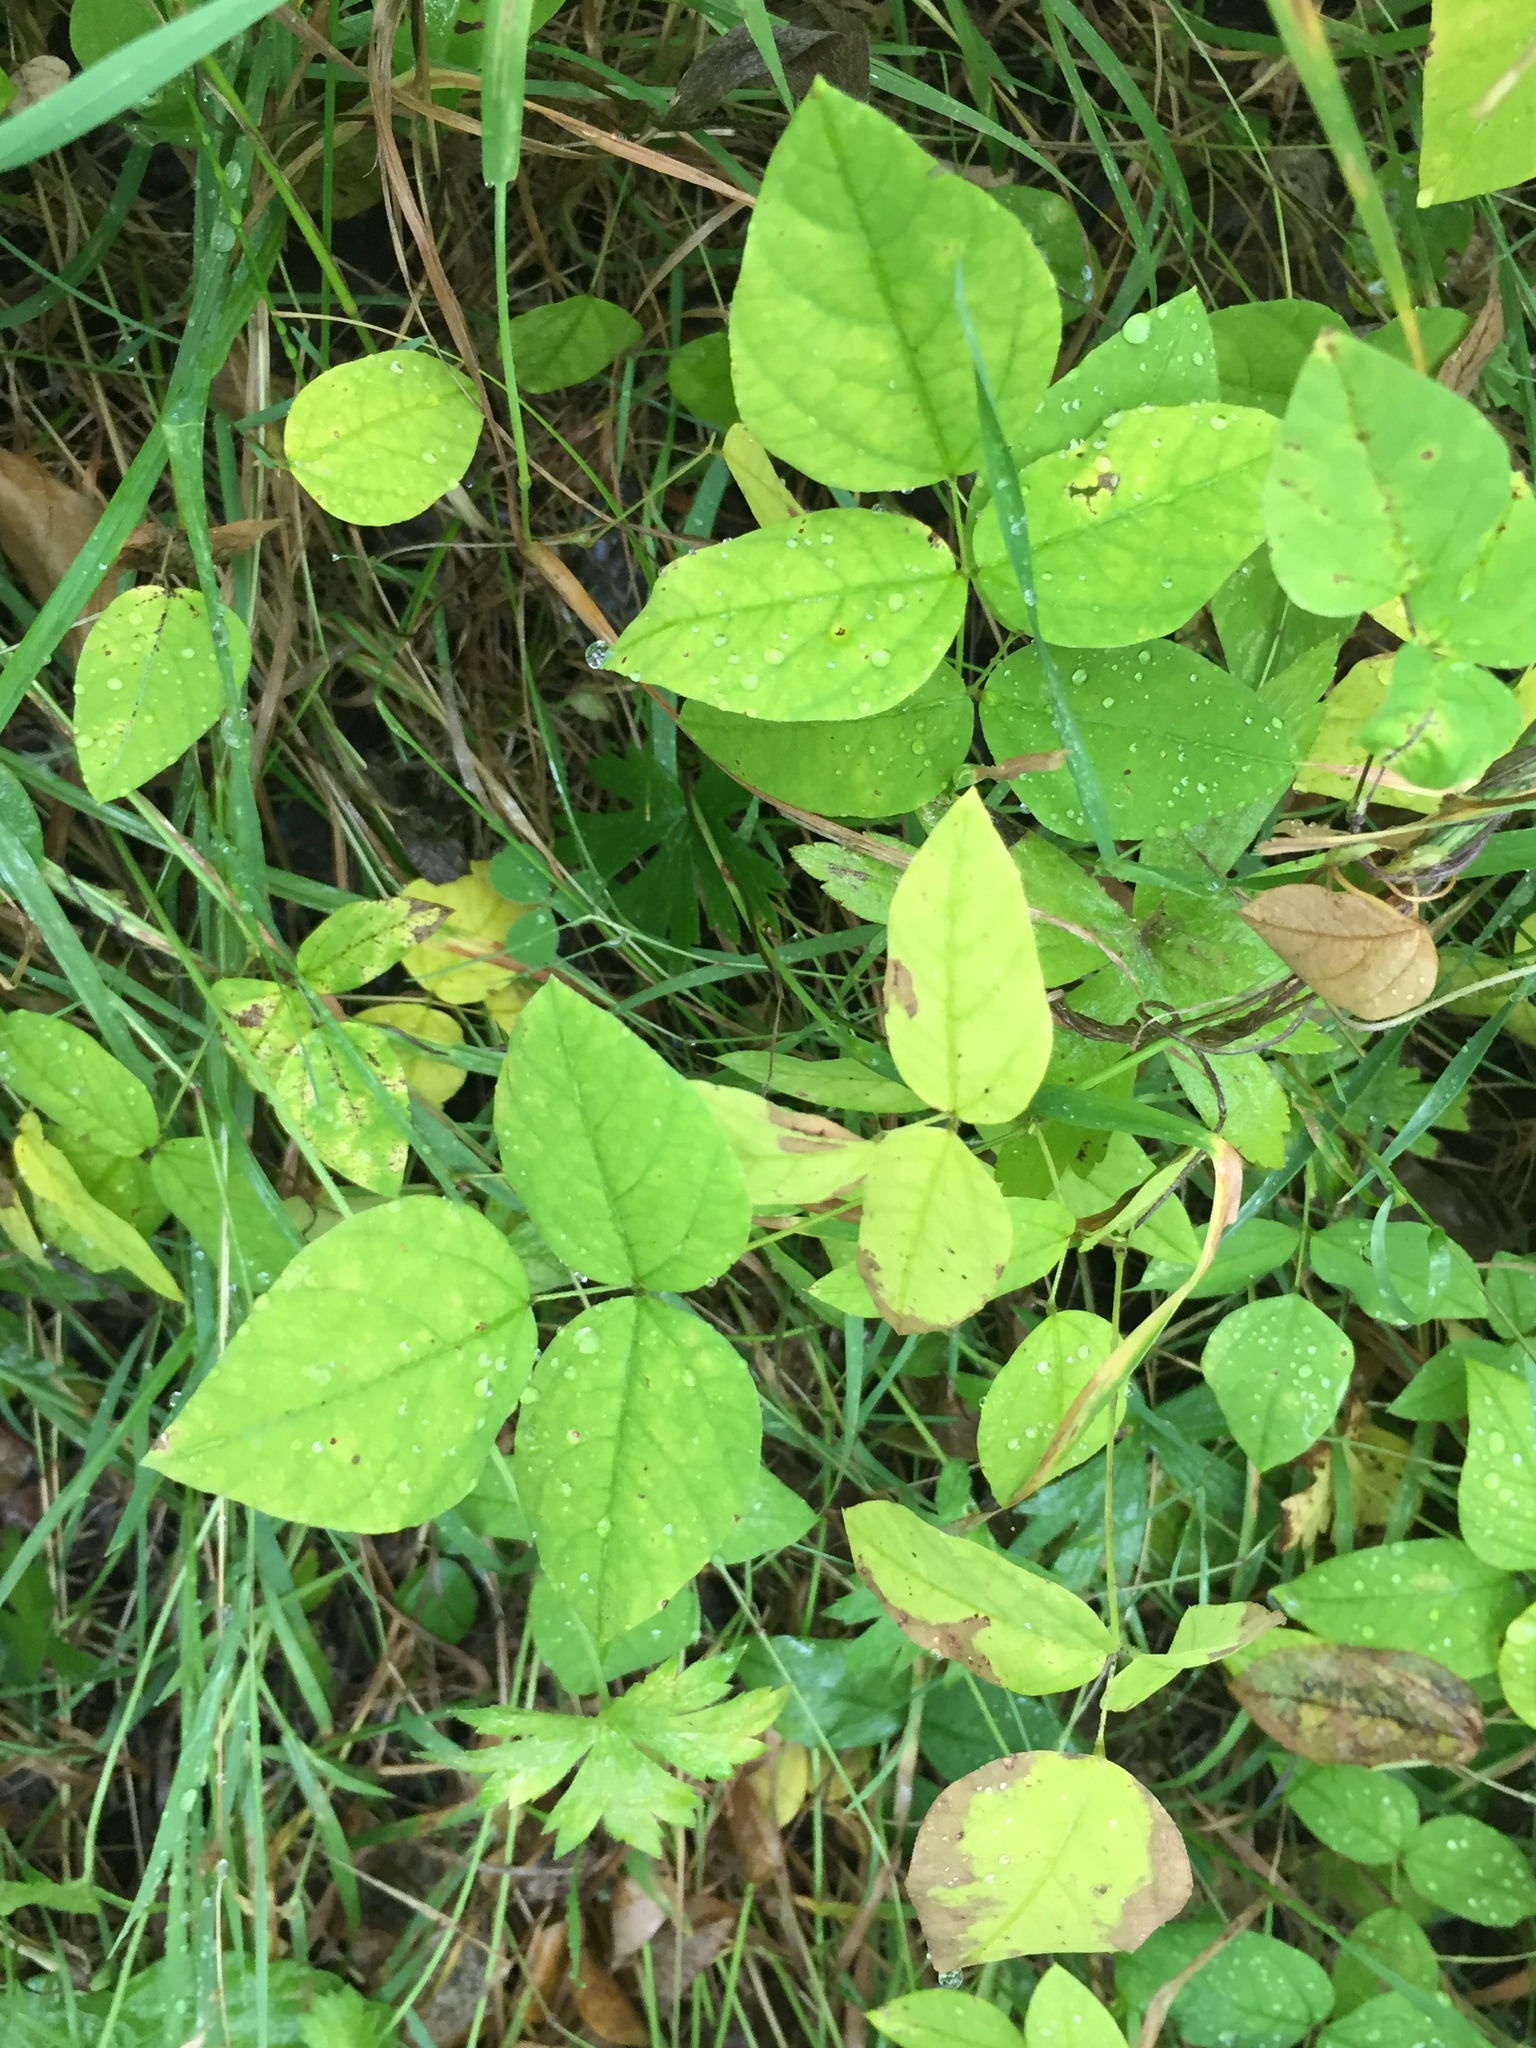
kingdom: Plantae
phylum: Tracheophyta
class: Magnoliopsida
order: Fabales
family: Fabaceae
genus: Amphicarpaea
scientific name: Amphicarpaea bracteata
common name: American hog peanut
